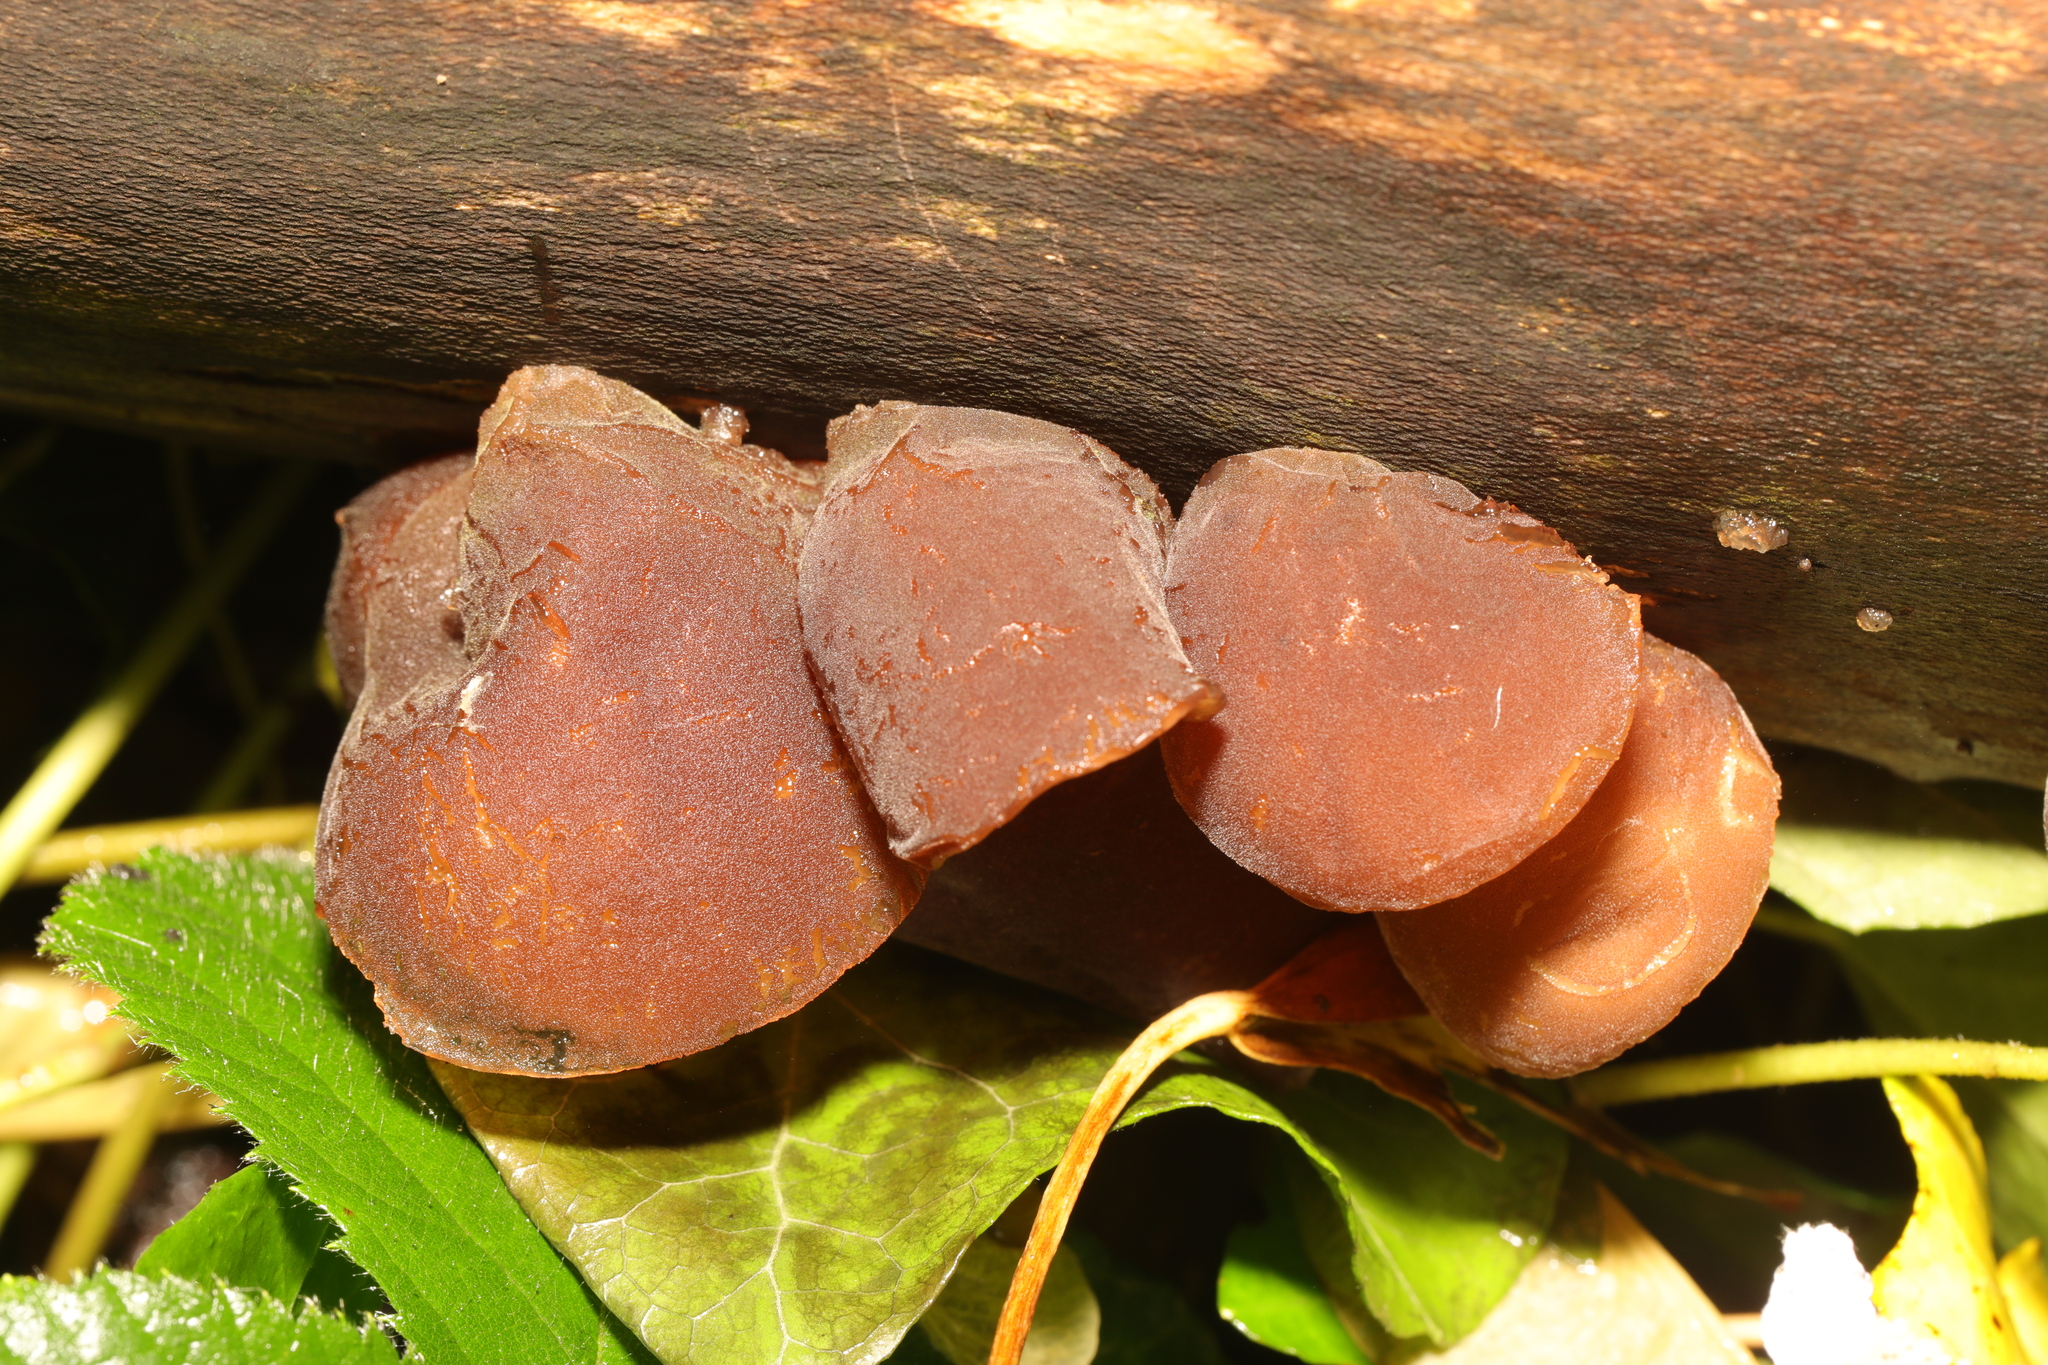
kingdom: Fungi
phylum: Basidiomycota
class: Agaricomycetes
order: Auriculariales
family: Auriculariaceae
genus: Auricularia
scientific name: Auricularia auricula-judae
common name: Jelly ear
